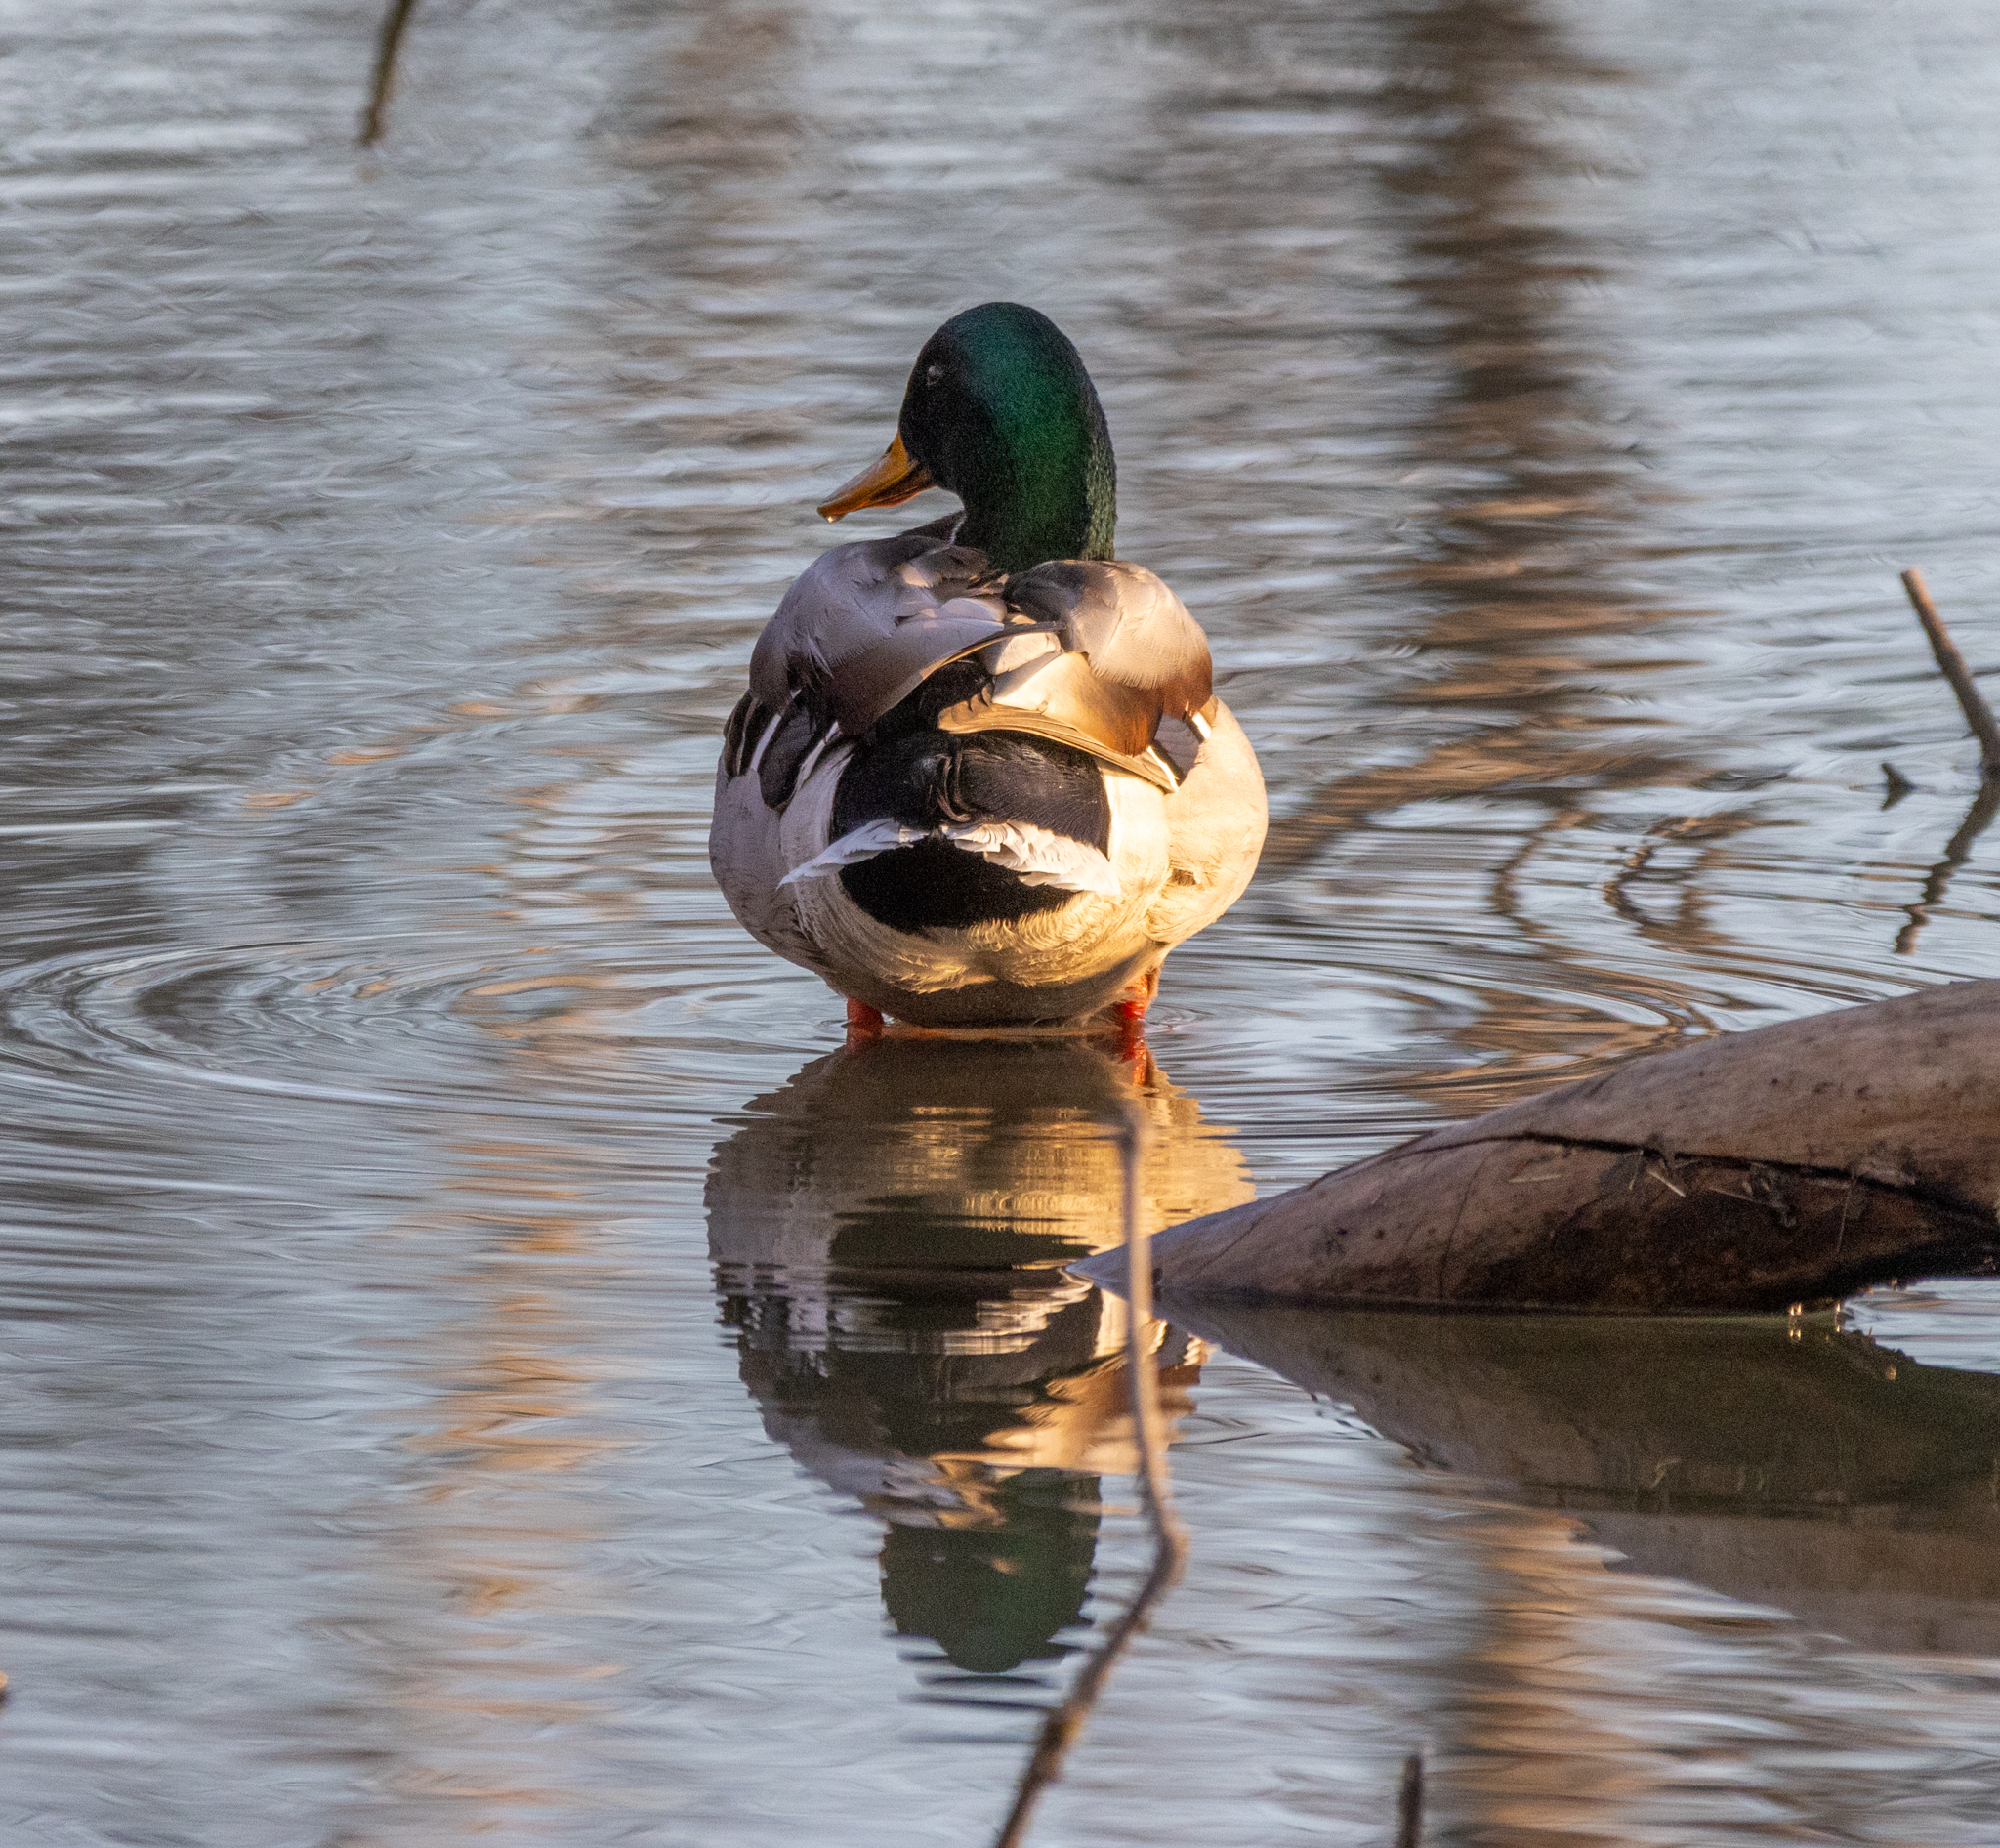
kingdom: Animalia
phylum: Chordata
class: Aves
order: Anseriformes
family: Anatidae
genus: Anas
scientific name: Anas platyrhynchos
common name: Mallard
